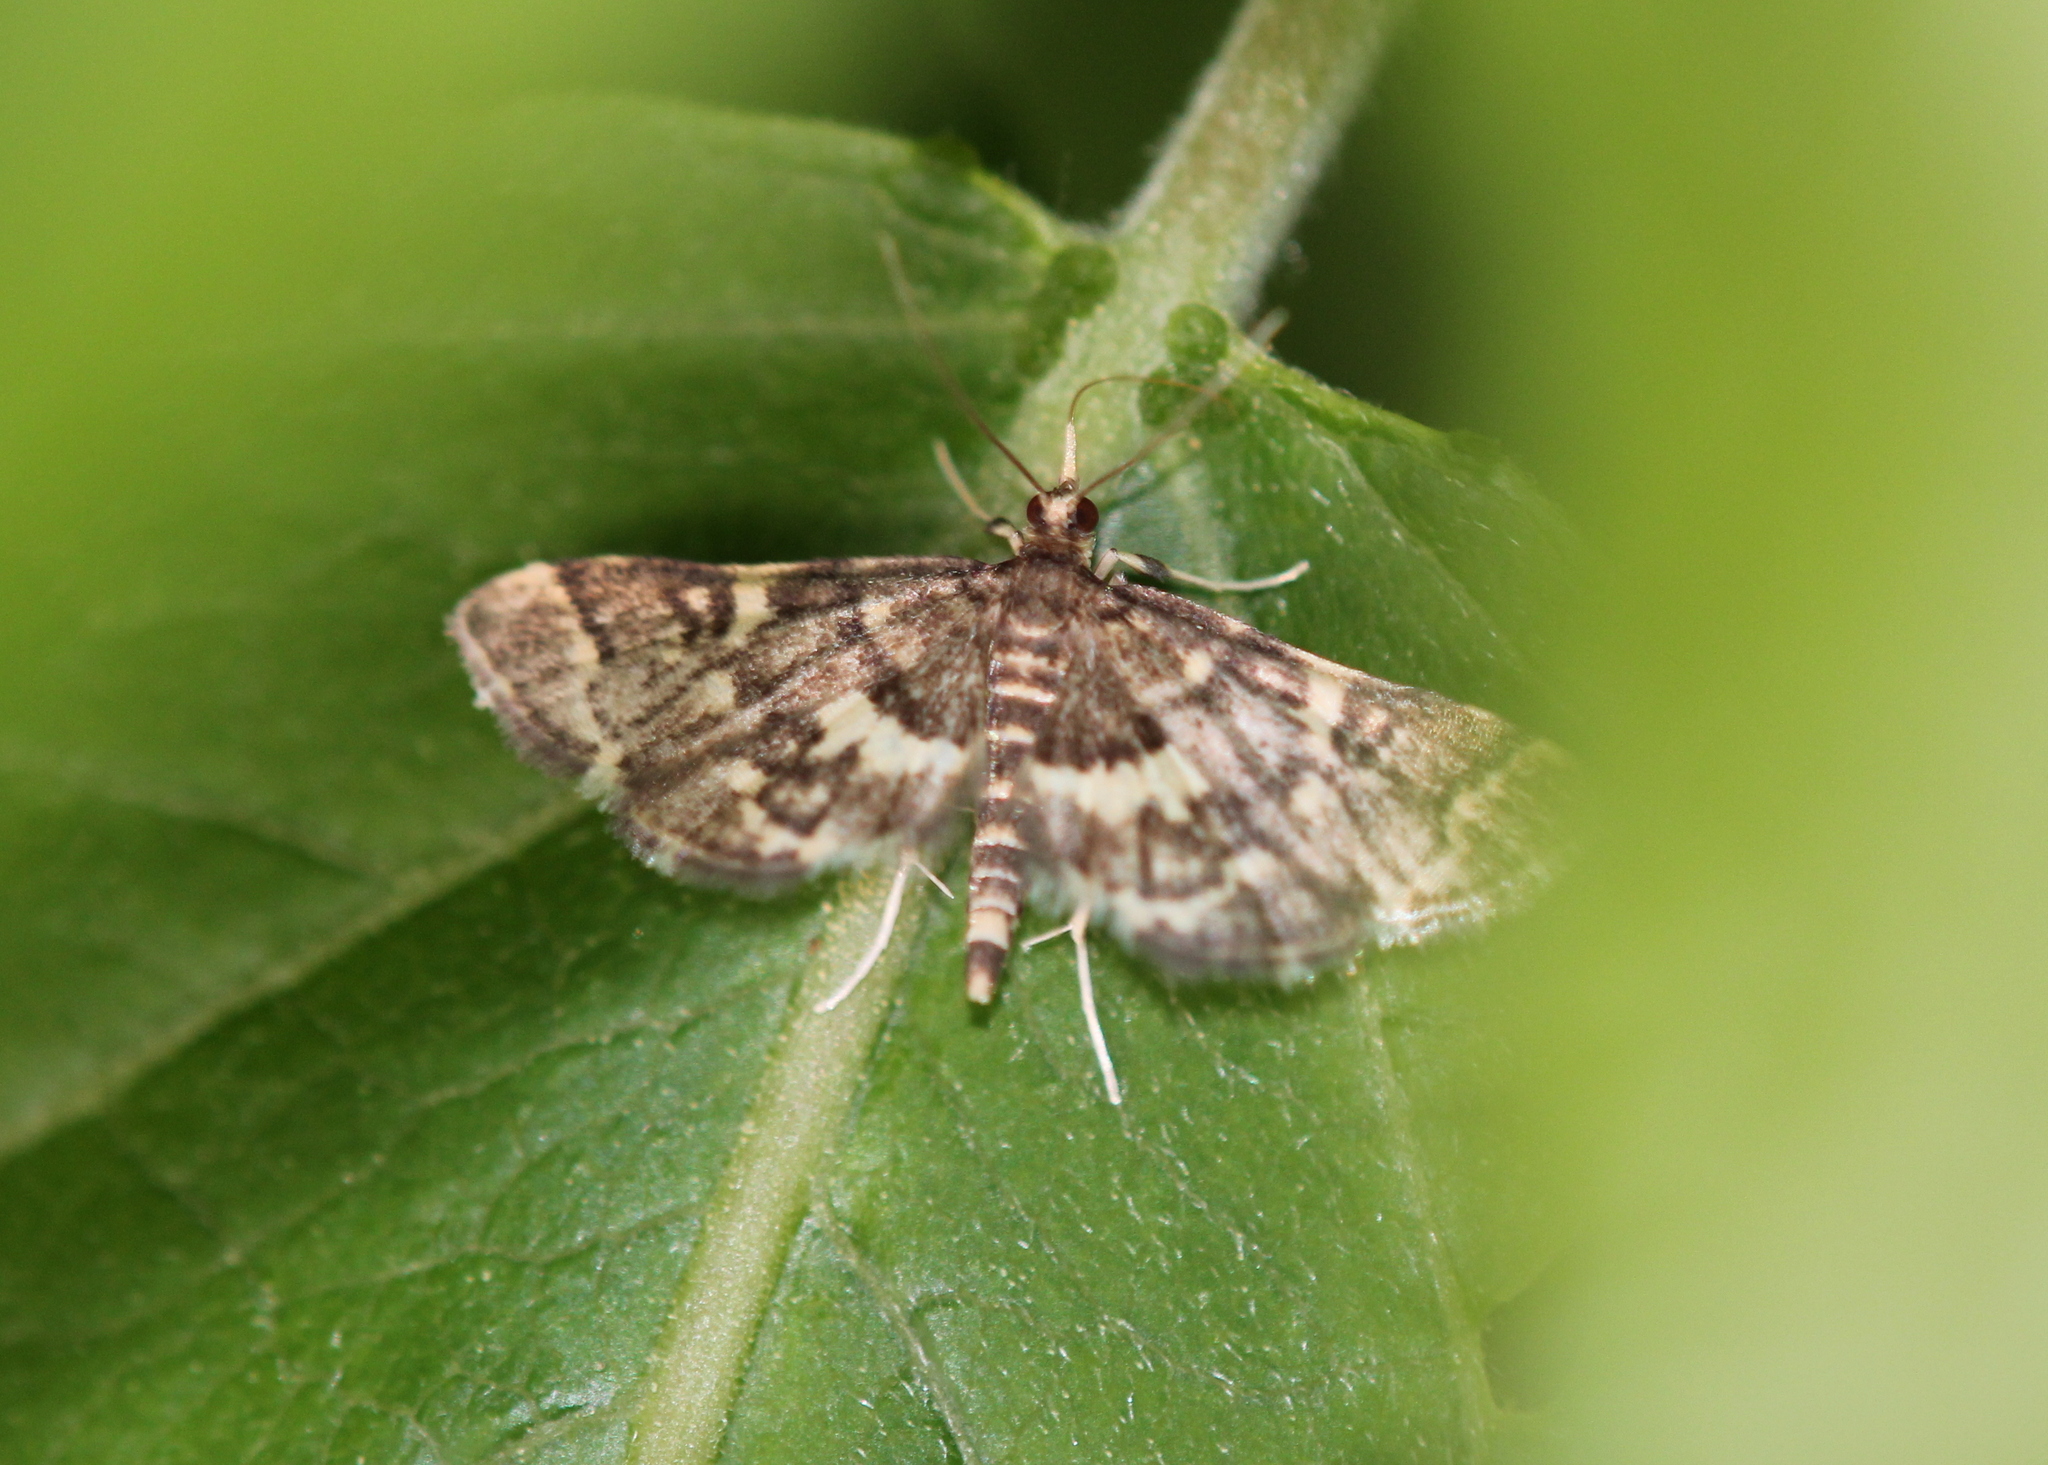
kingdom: Animalia
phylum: Arthropoda
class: Insecta
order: Lepidoptera
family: Crambidae
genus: Anageshna
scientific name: Anageshna primordialis
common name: Yellow-spotted webworm moth
